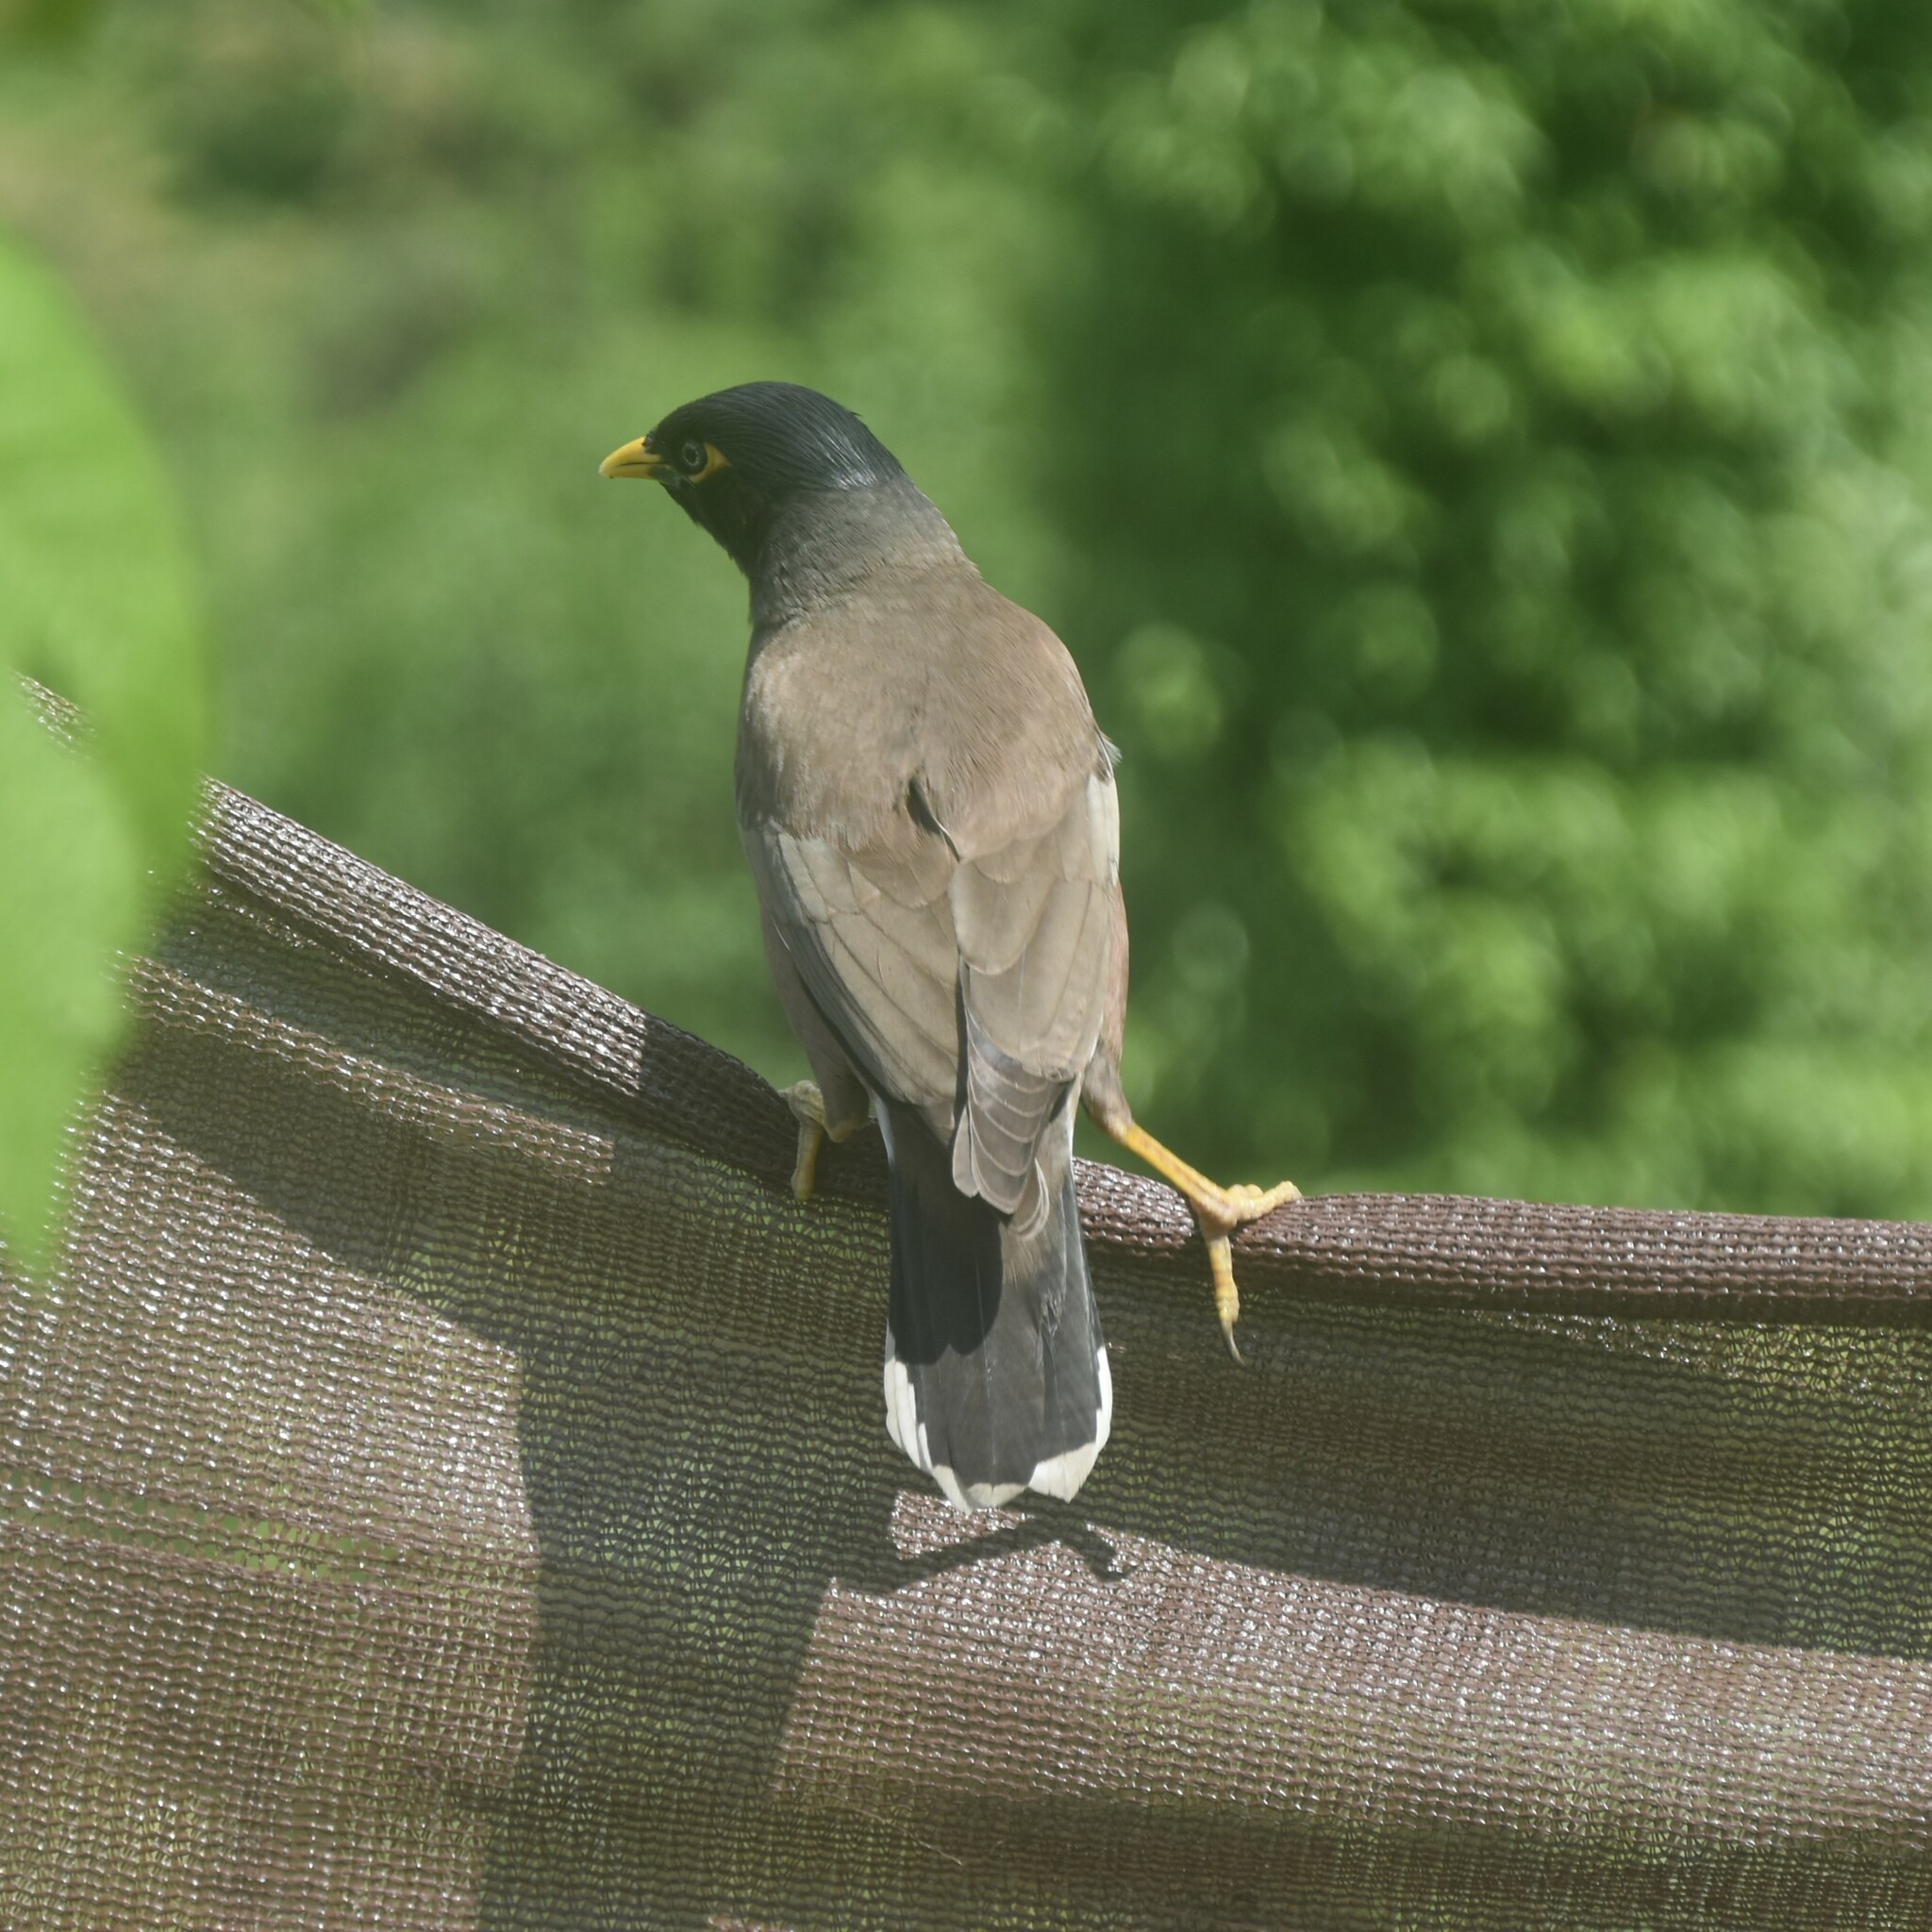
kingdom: Animalia
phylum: Chordata
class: Aves
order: Passeriformes
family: Sturnidae
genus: Acridotheres
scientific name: Acridotheres tristis
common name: Common myna
